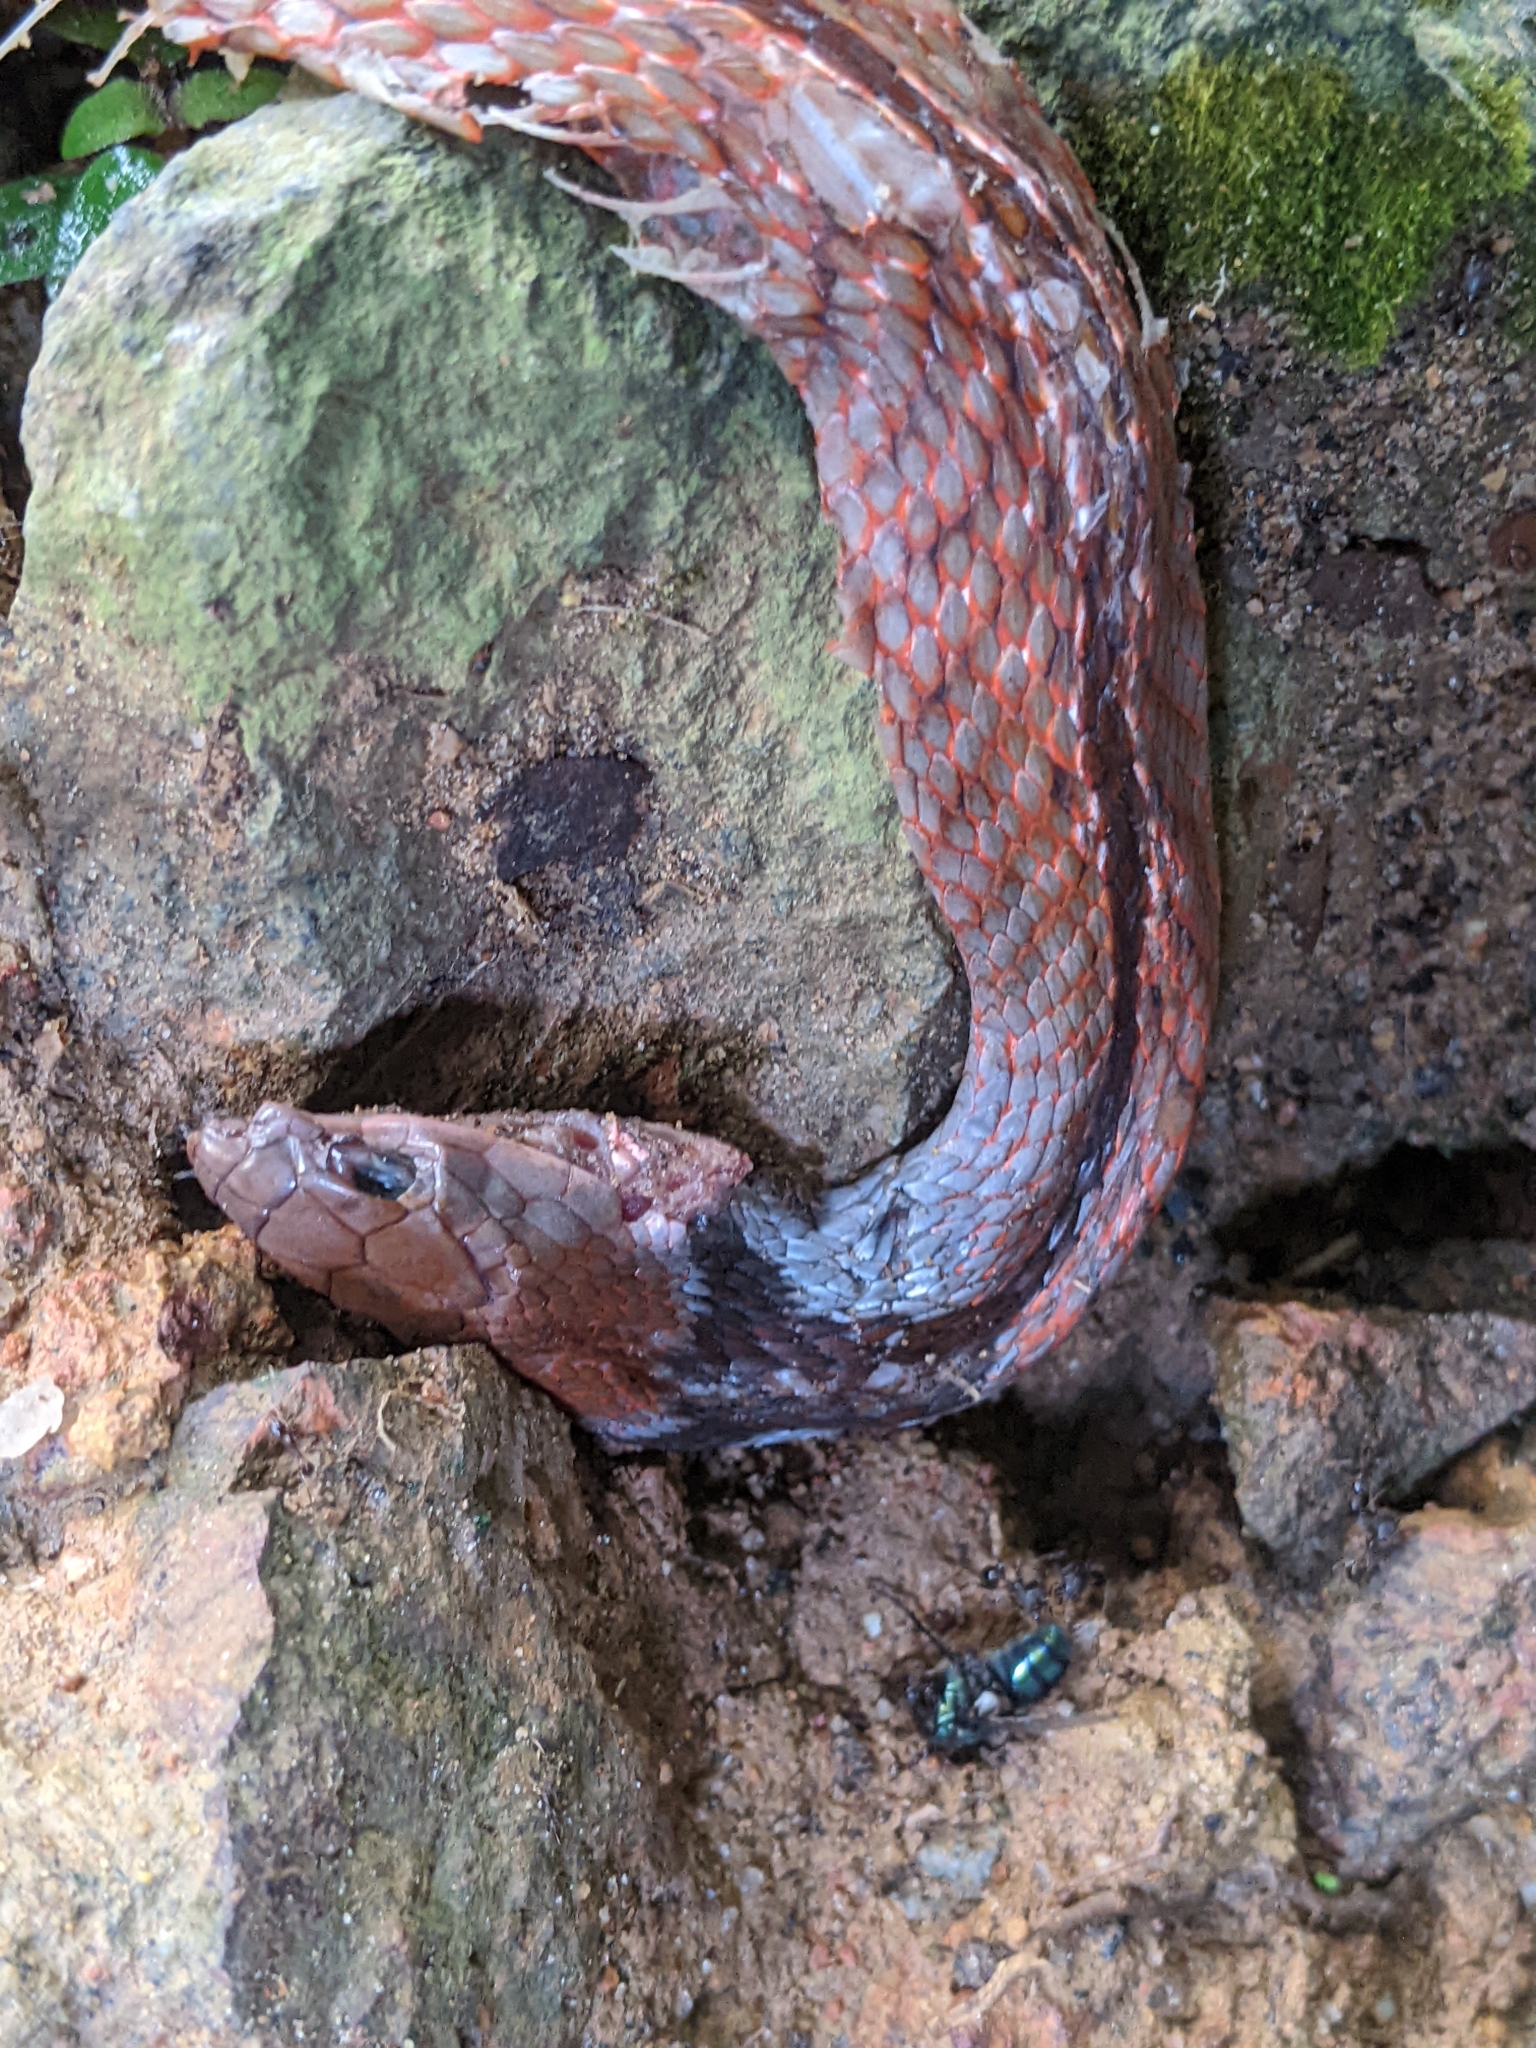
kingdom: Animalia
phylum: Chordata
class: Squamata
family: Colubridae
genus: Rhabdophis
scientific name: Rhabdophis rhodomelas
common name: Blue-necked keelback
